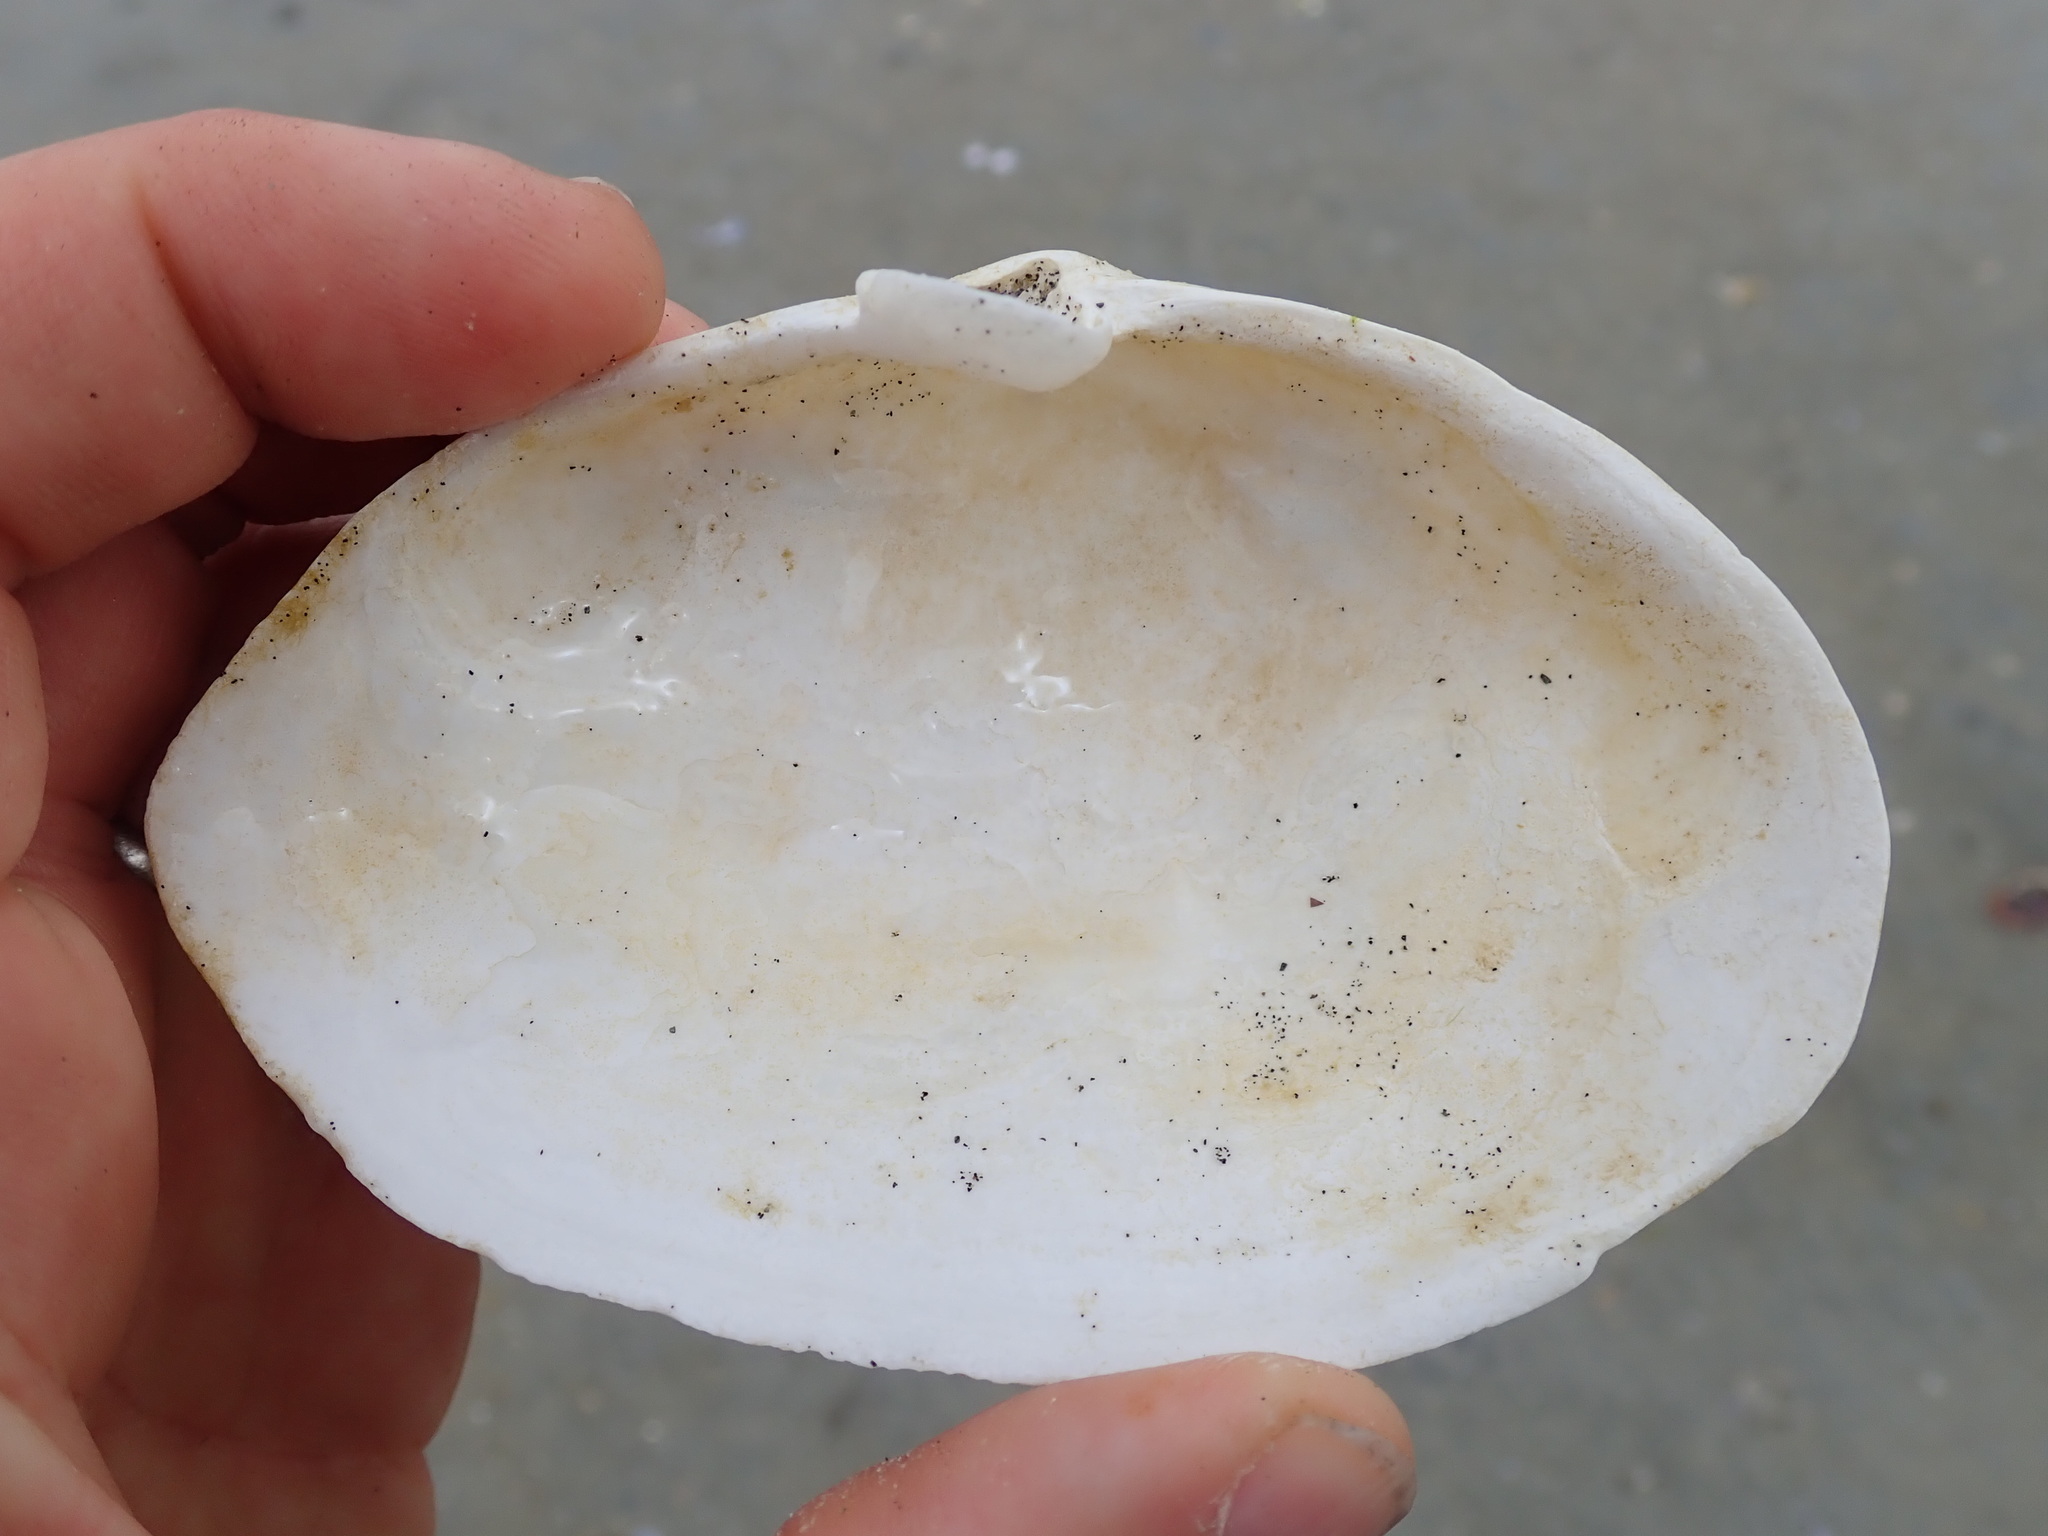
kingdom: Animalia
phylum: Mollusca
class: Bivalvia
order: Myida
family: Myidae
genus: Mya
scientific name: Mya arenaria
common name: Soft-shelled clam
